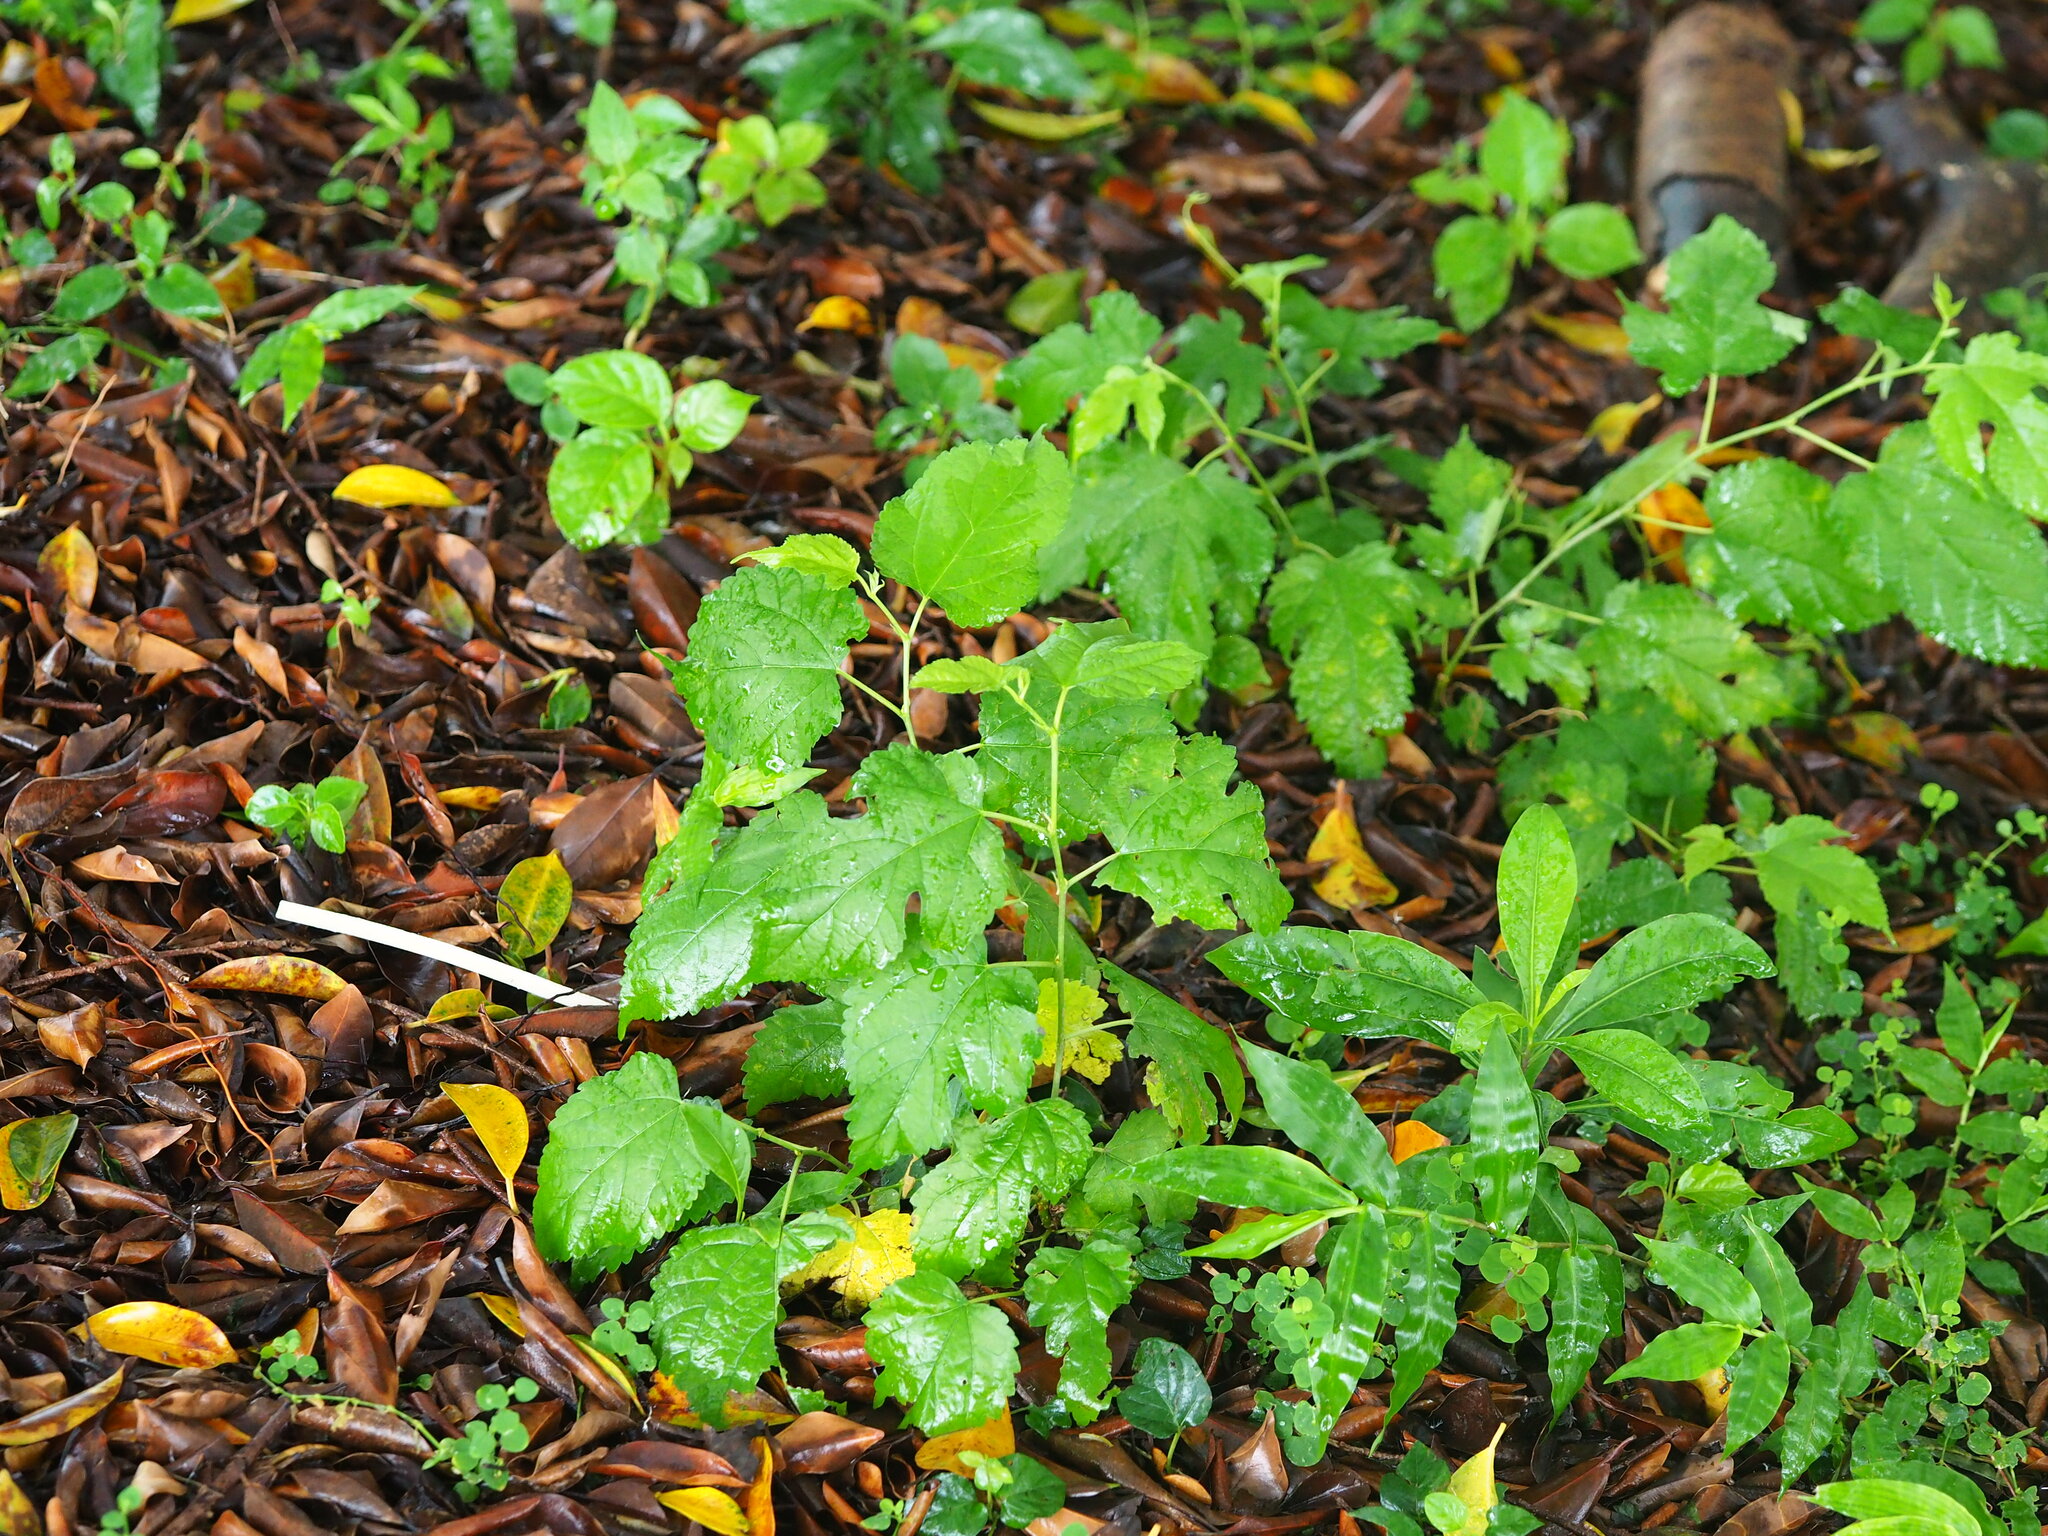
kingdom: Plantae
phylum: Tracheophyta
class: Magnoliopsida
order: Rosales
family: Moraceae
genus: Morus
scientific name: Morus indica
